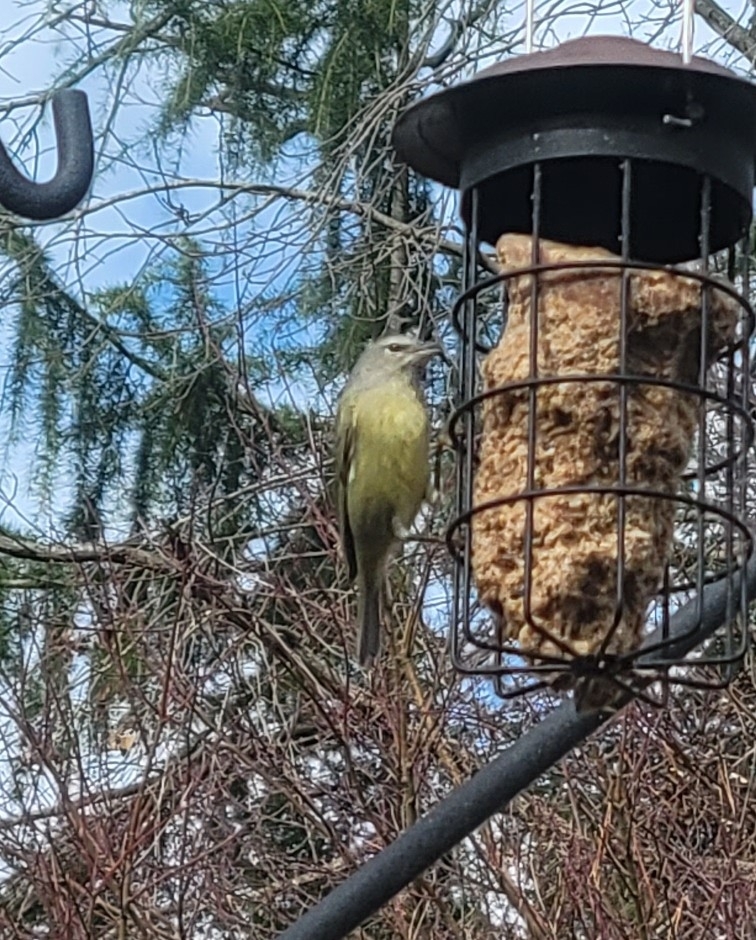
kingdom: Animalia
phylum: Chordata
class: Aves
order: Passeriformes
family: Parulidae
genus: Leiothlypis
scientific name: Leiothlypis celata
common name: Orange-crowned warbler
